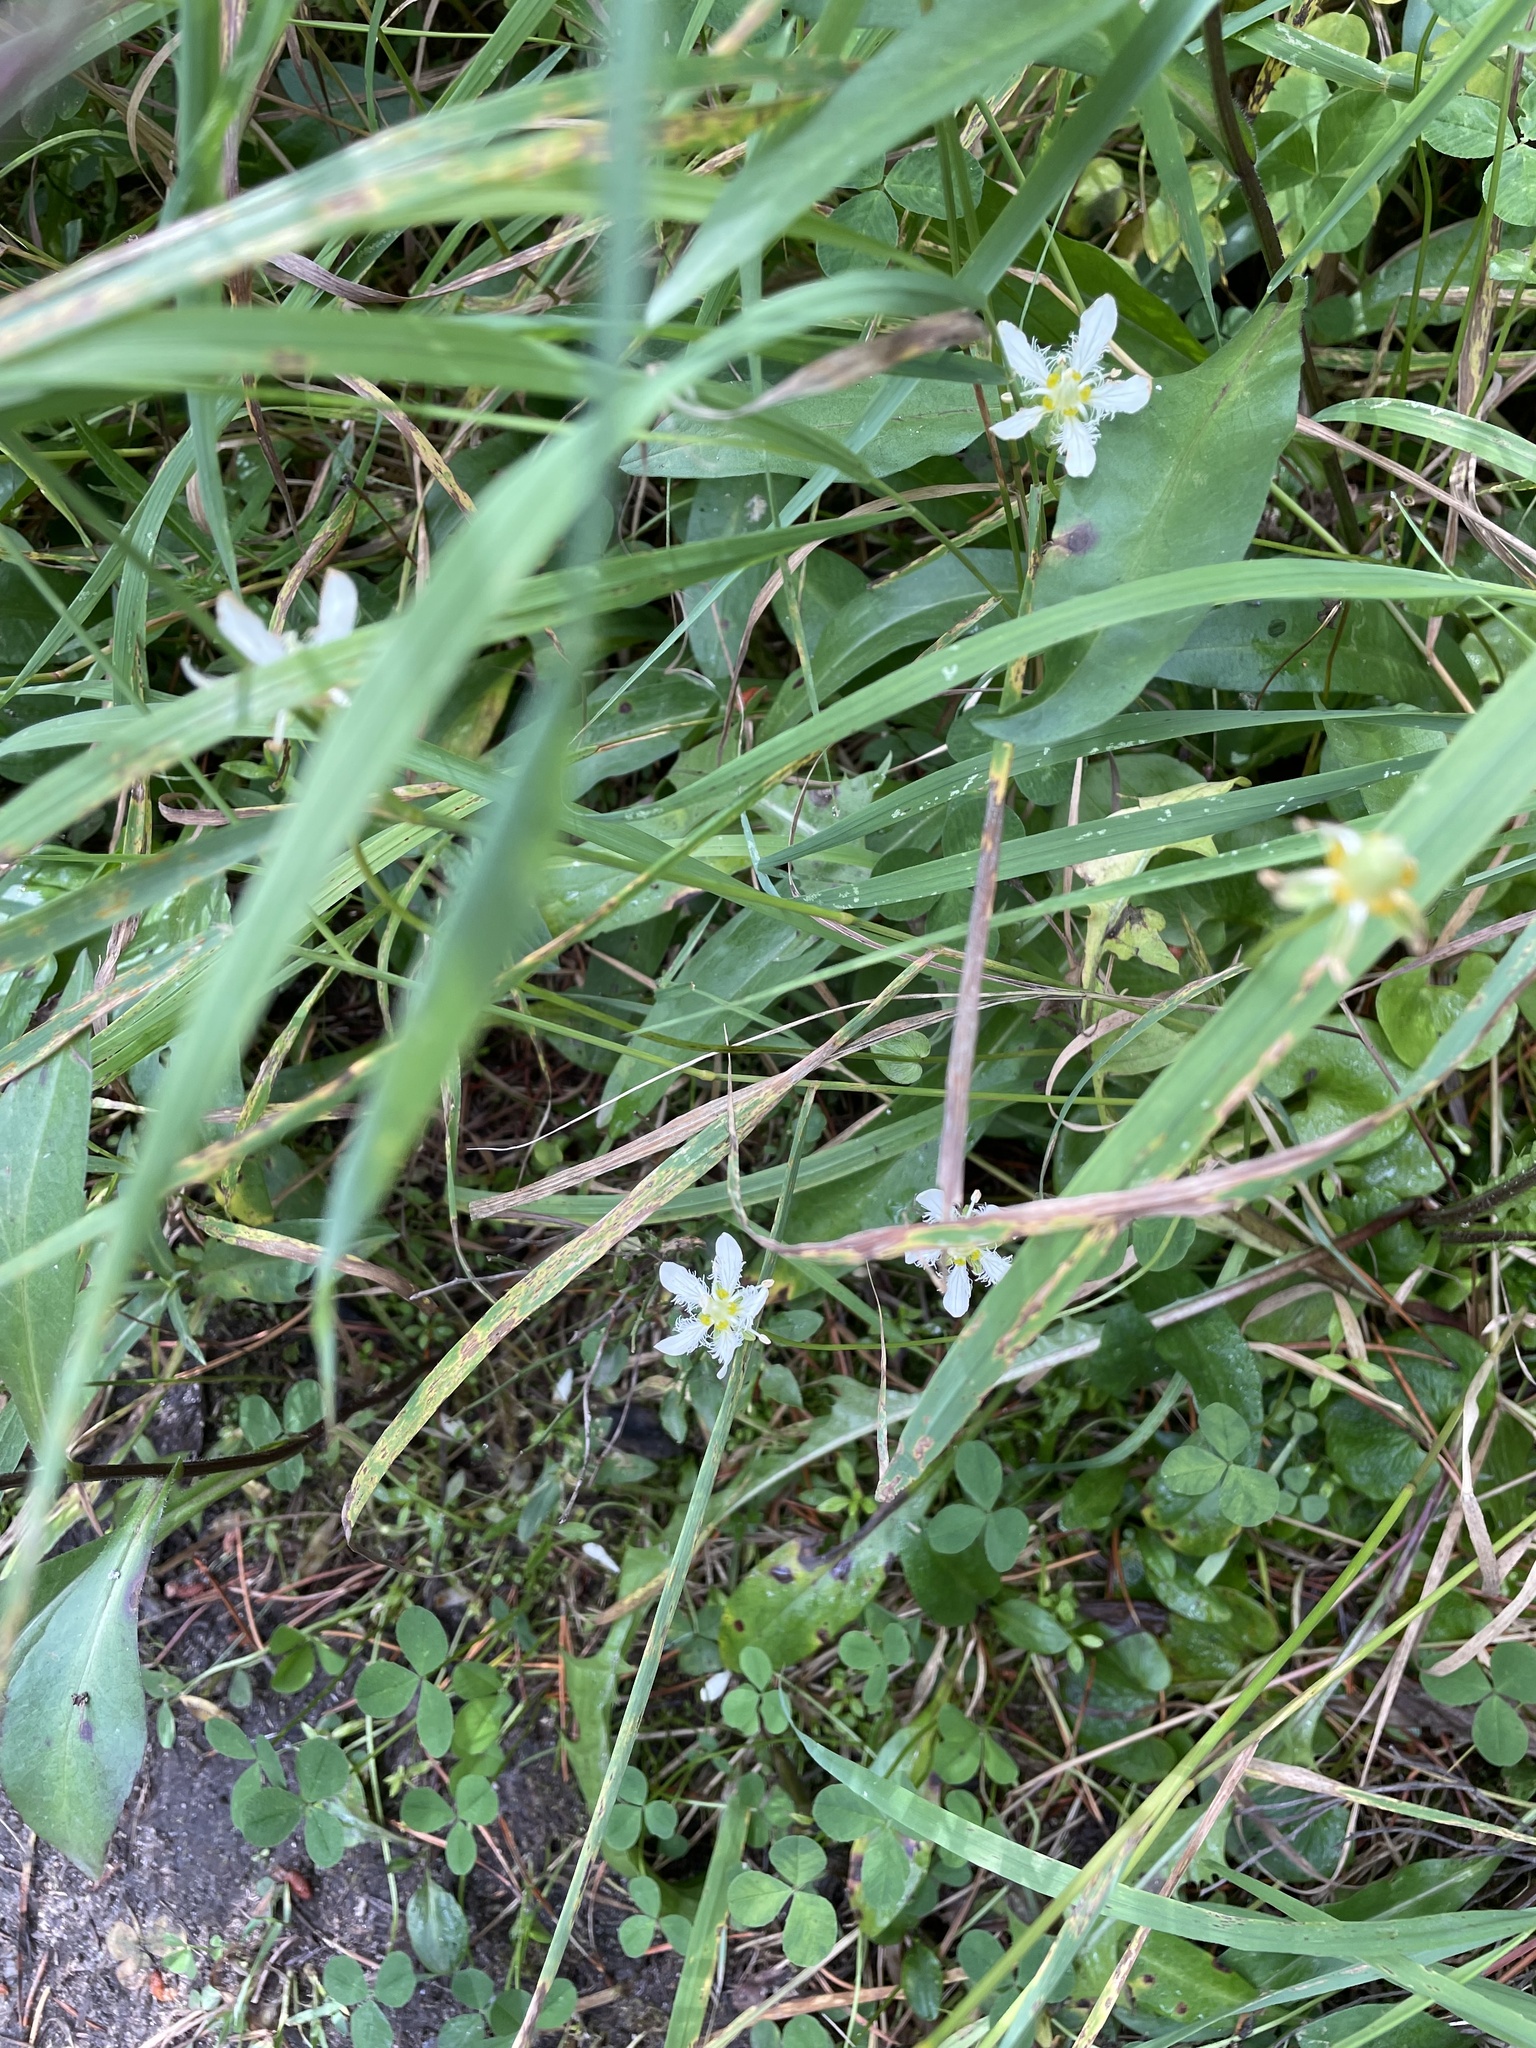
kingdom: Plantae
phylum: Tracheophyta
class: Magnoliopsida
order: Celastrales
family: Parnassiaceae
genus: Parnassia
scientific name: Parnassia fimbriata
